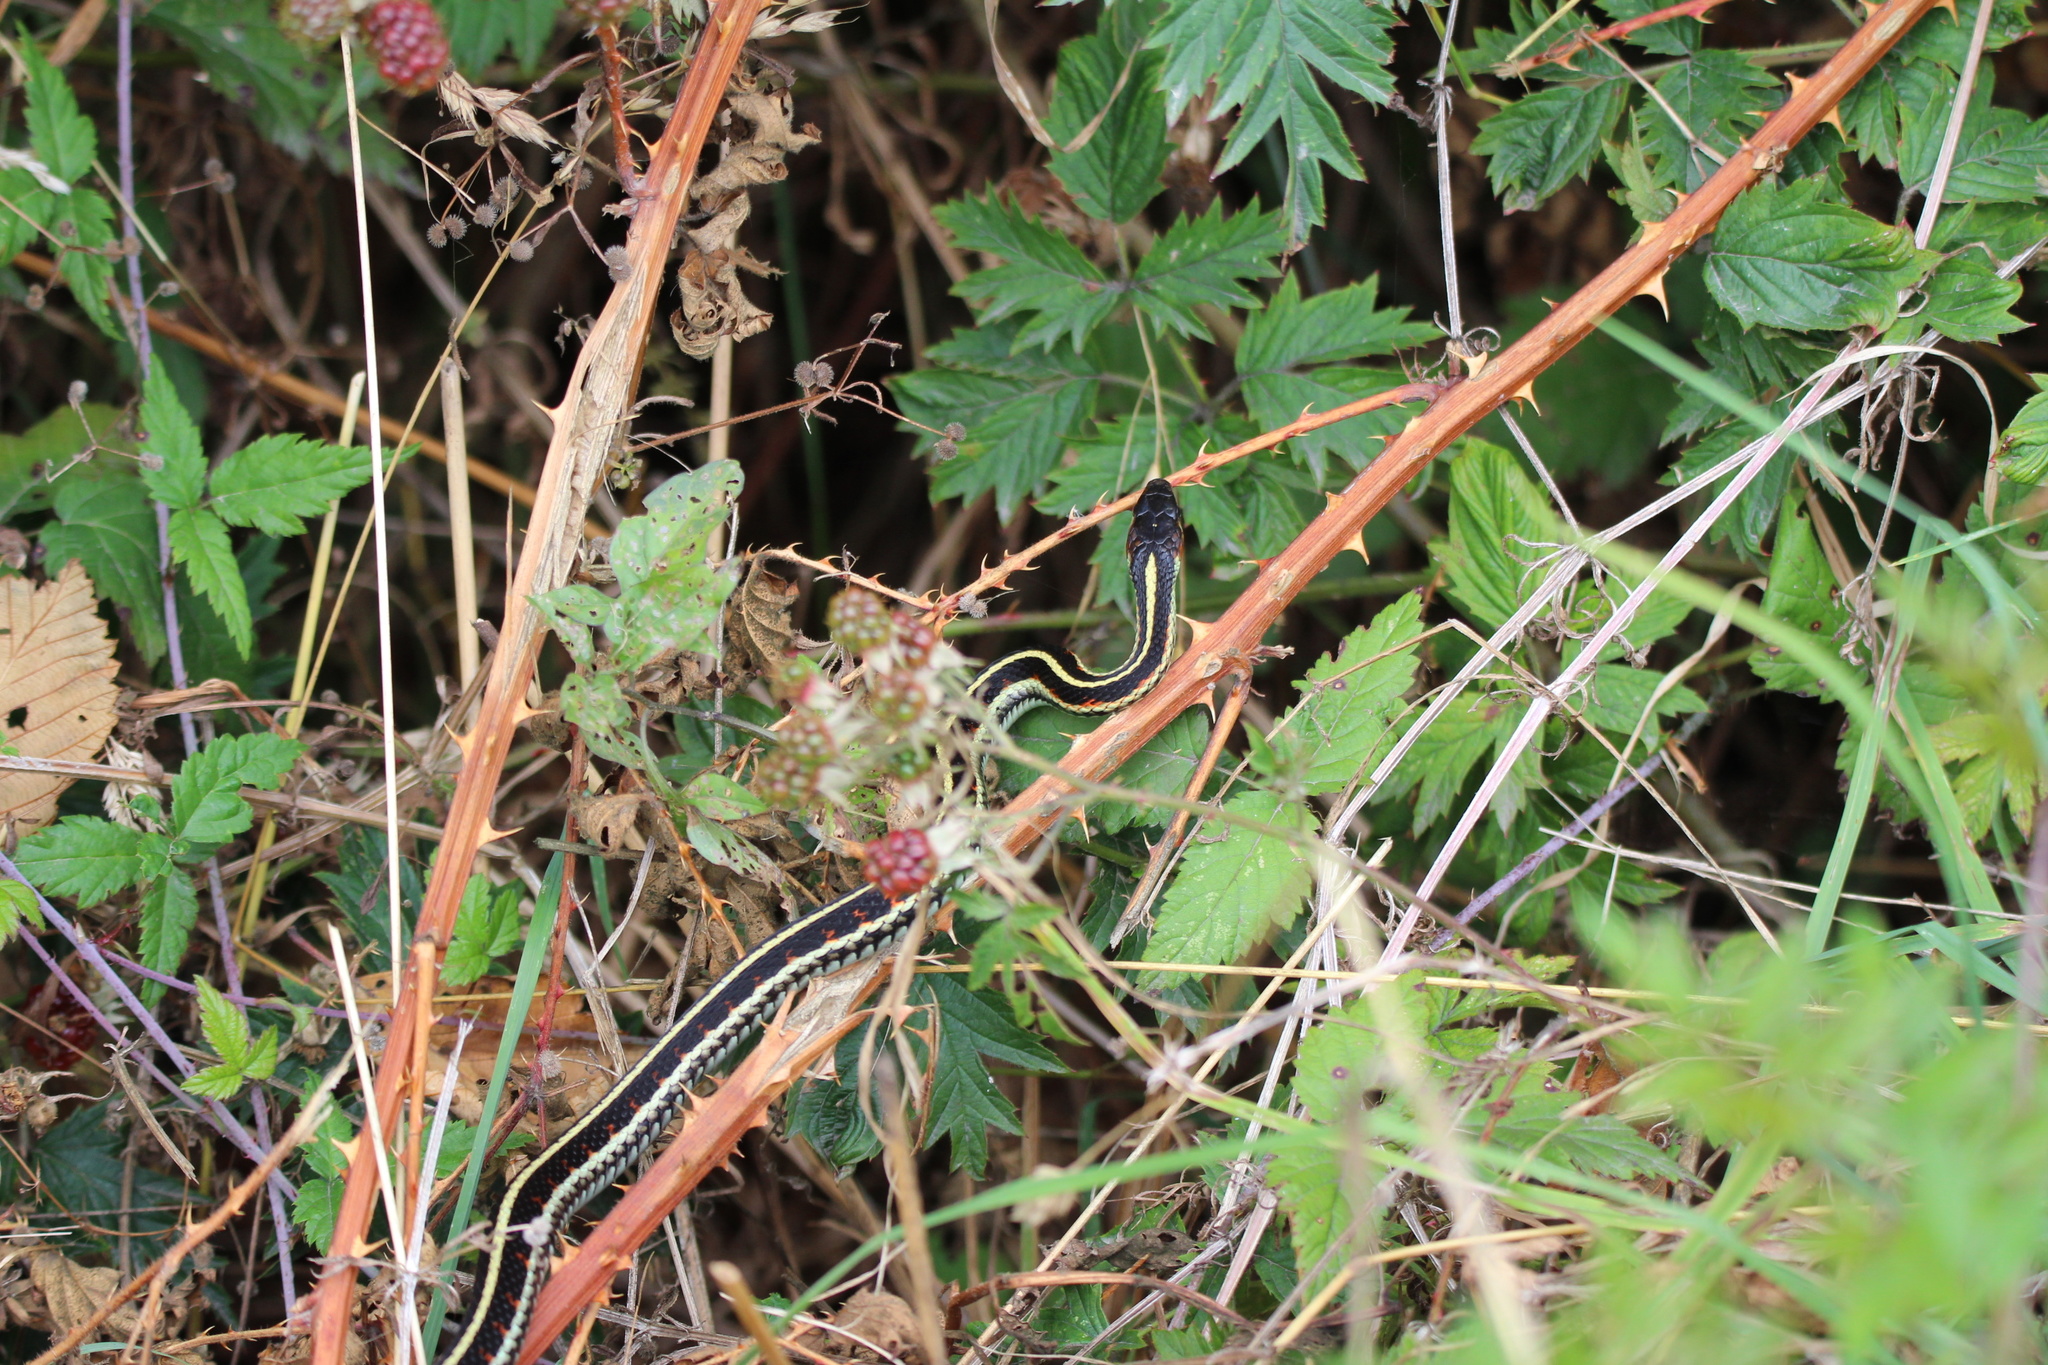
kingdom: Animalia
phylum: Chordata
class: Squamata
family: Colubridae
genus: Thamnophis
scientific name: Thamnophis sirtalis
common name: Common garter snake
